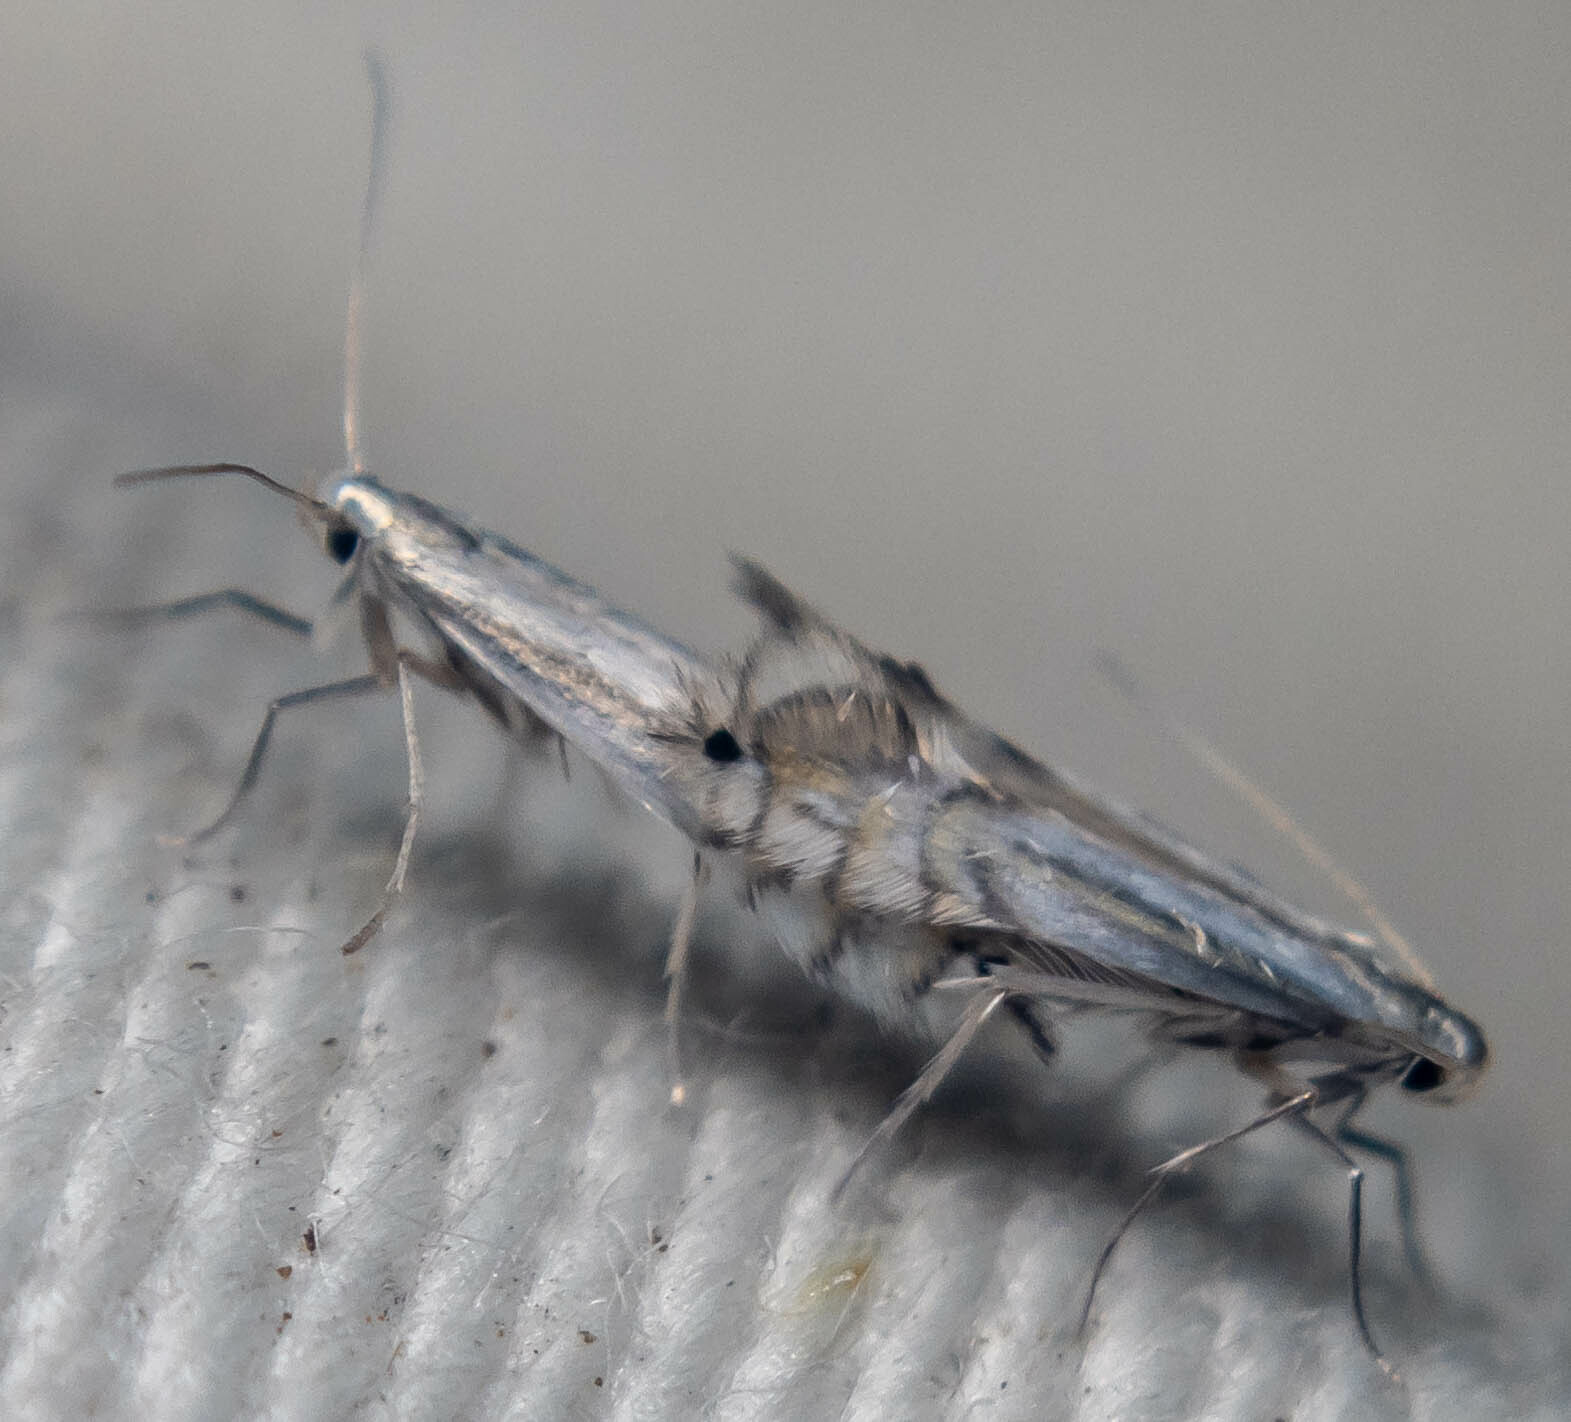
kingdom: Animalia
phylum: Arthropoda
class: Insecta
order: Lepidoptera
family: Gracillariidae
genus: Phyllocnistis
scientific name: Phyllocnistis saligna
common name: Willow bent-wing
